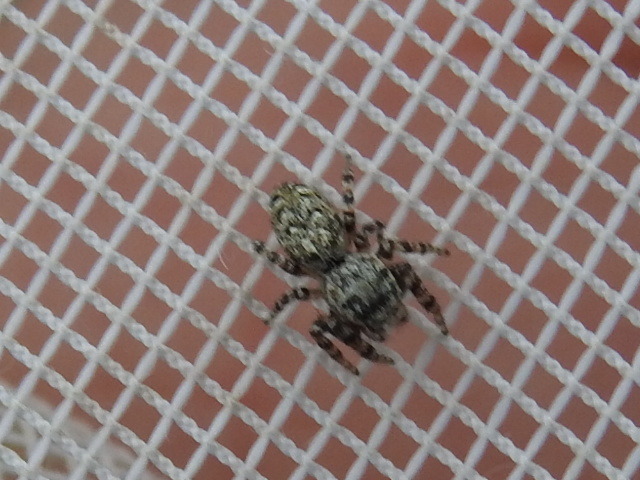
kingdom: Animalia
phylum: Arthropoda
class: Arachnida
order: Araneae
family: Salticidae
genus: Pelegrina
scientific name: Pelegrina galathea
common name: Jumping spiders
